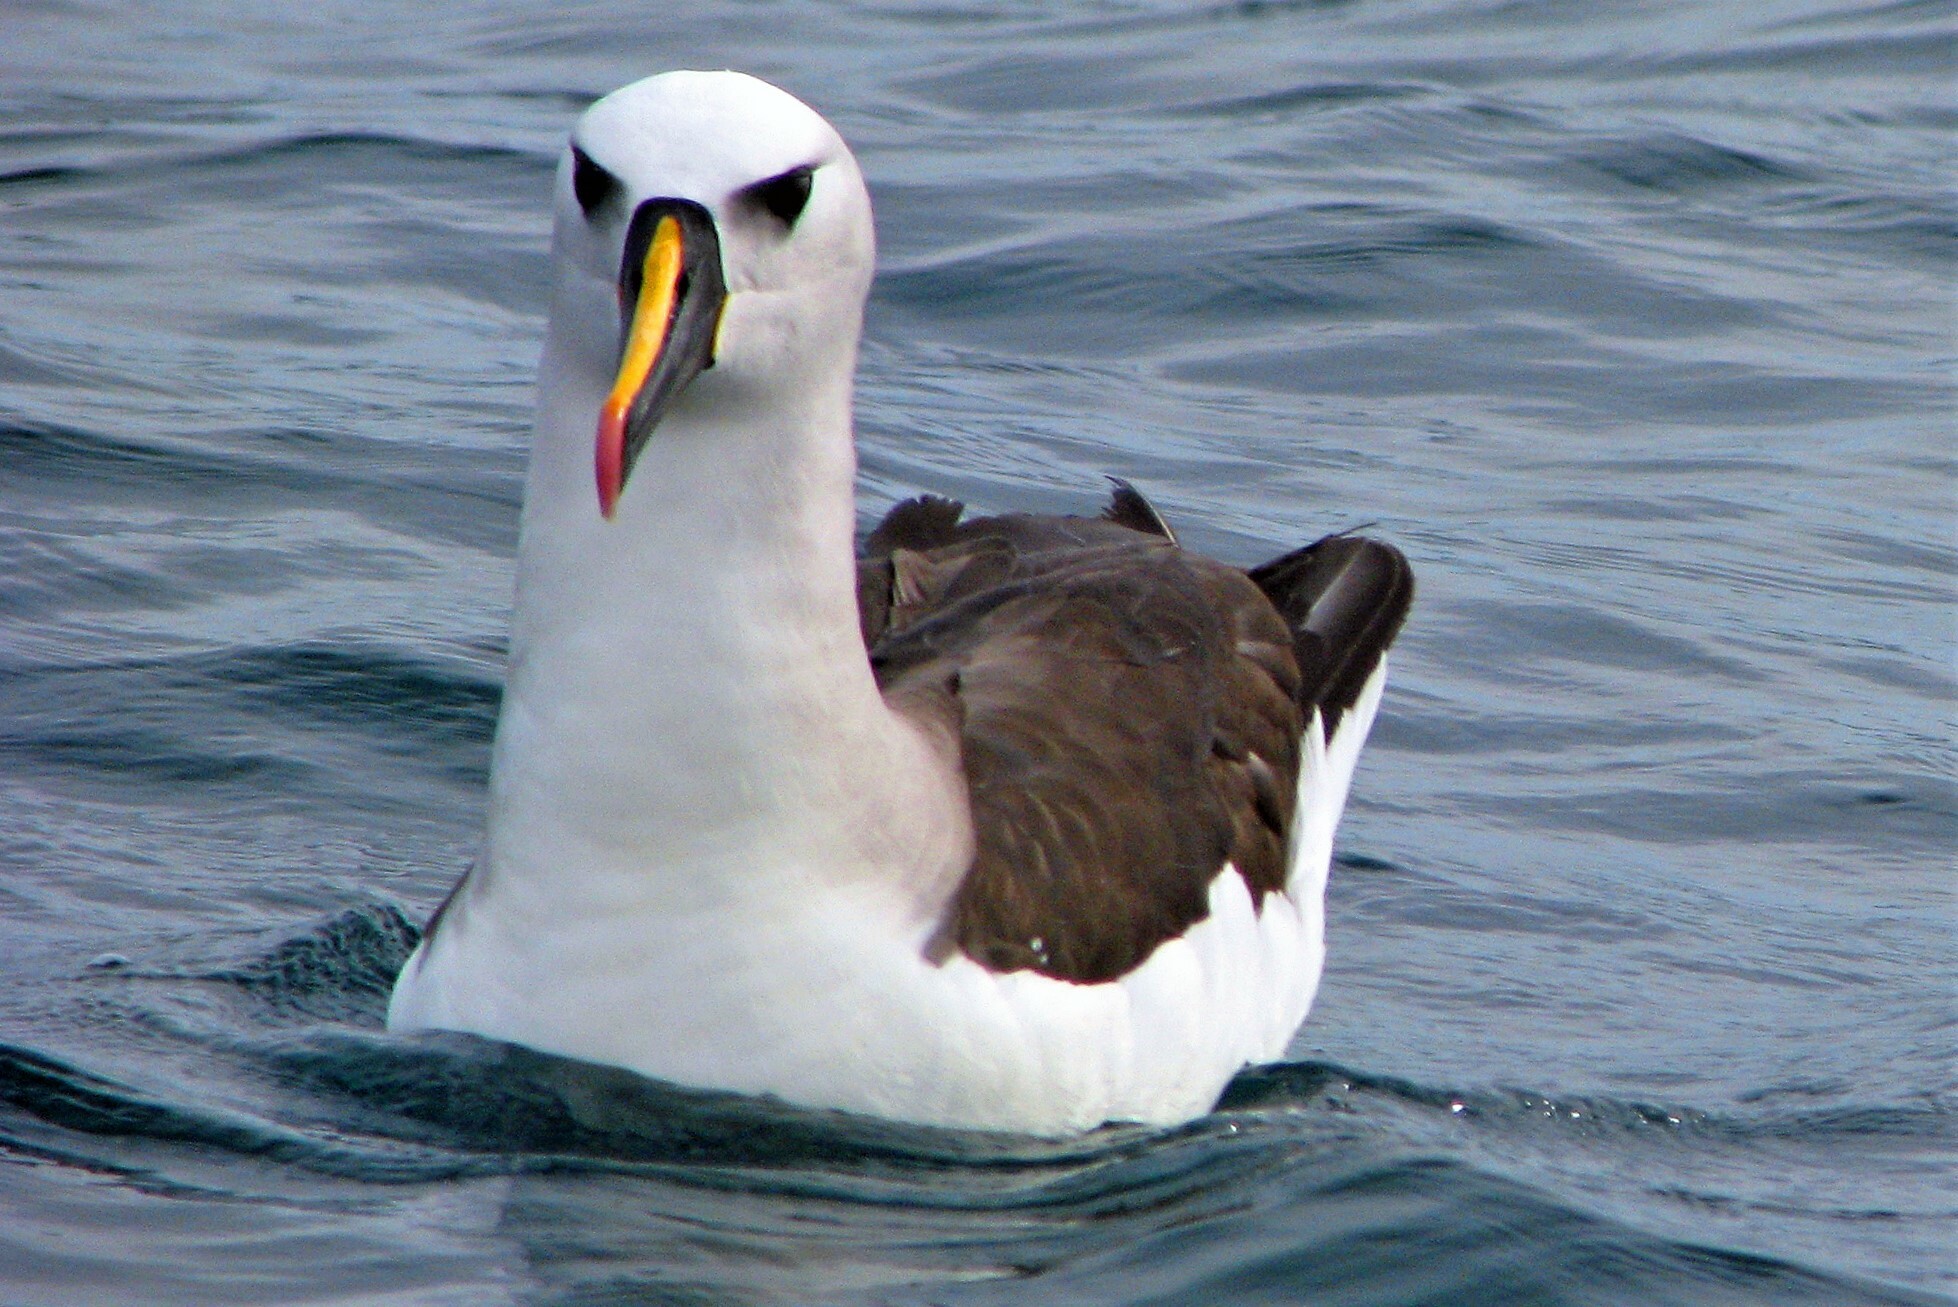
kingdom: Animalia
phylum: Chordata
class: Aves
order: Procellariiformes
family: Diomedeidae
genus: Thalassarche
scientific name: Thalassarche chlororhynchos
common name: Atlantic yellow-nosed albatross
